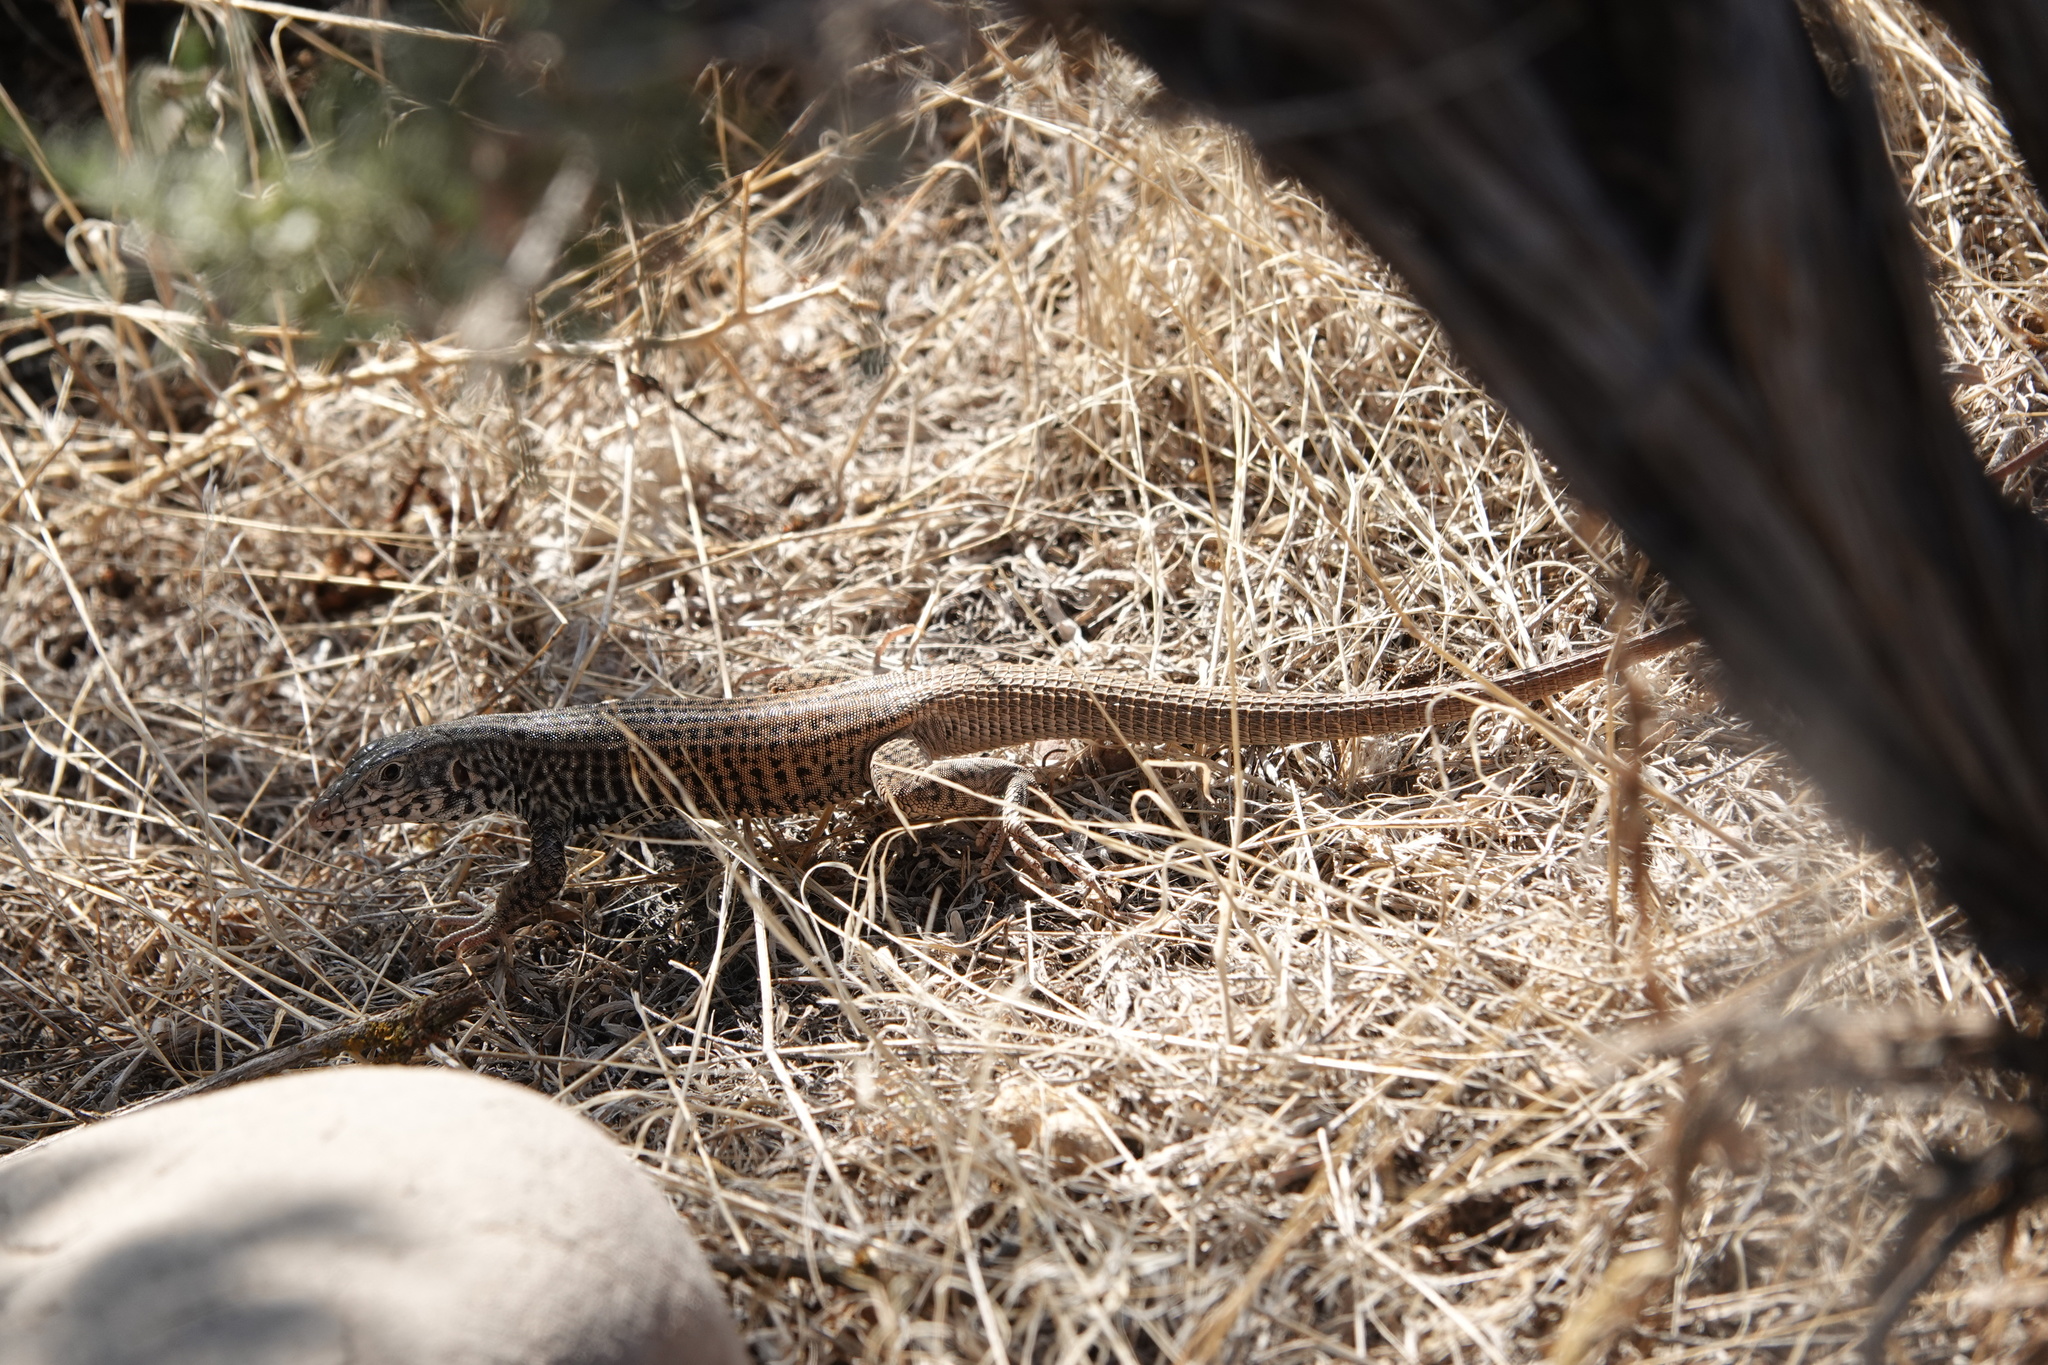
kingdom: Animalia
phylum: Chordata
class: Squamata
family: Teiidae
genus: Aspidoscelis
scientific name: Aspidoscelis tigris
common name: Tiger whiptail
